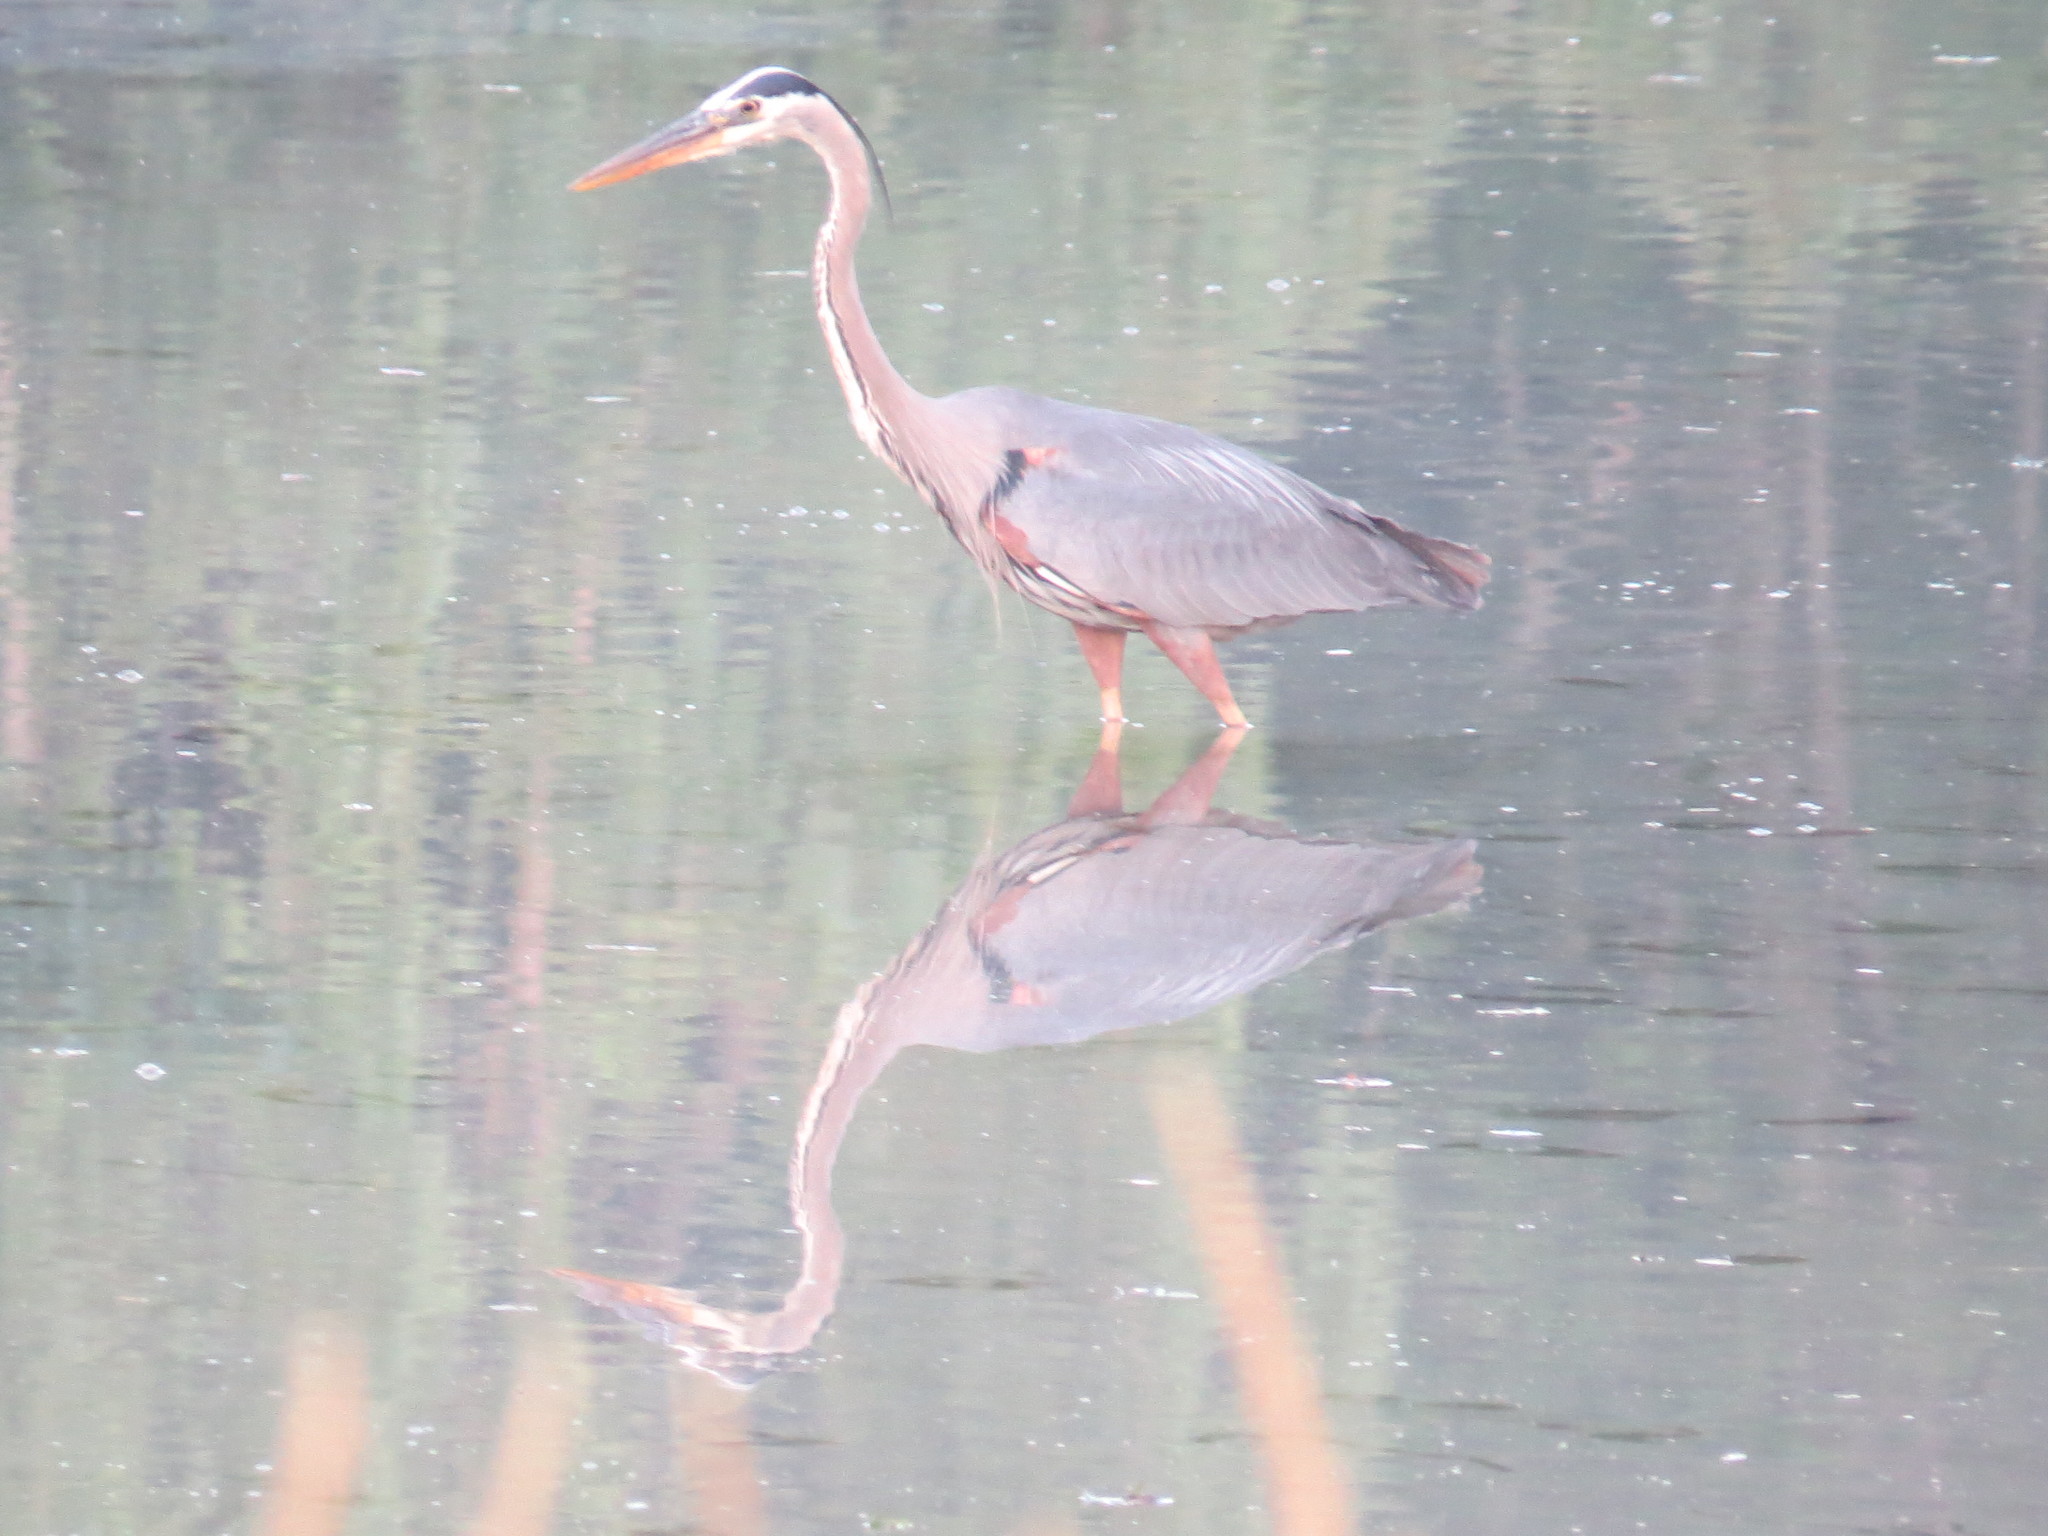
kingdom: Animalia
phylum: Chordata
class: Aves
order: Pelecaniformes
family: Ardeidae
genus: Ardea
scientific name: Ardea herodias
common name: Great blue heron
